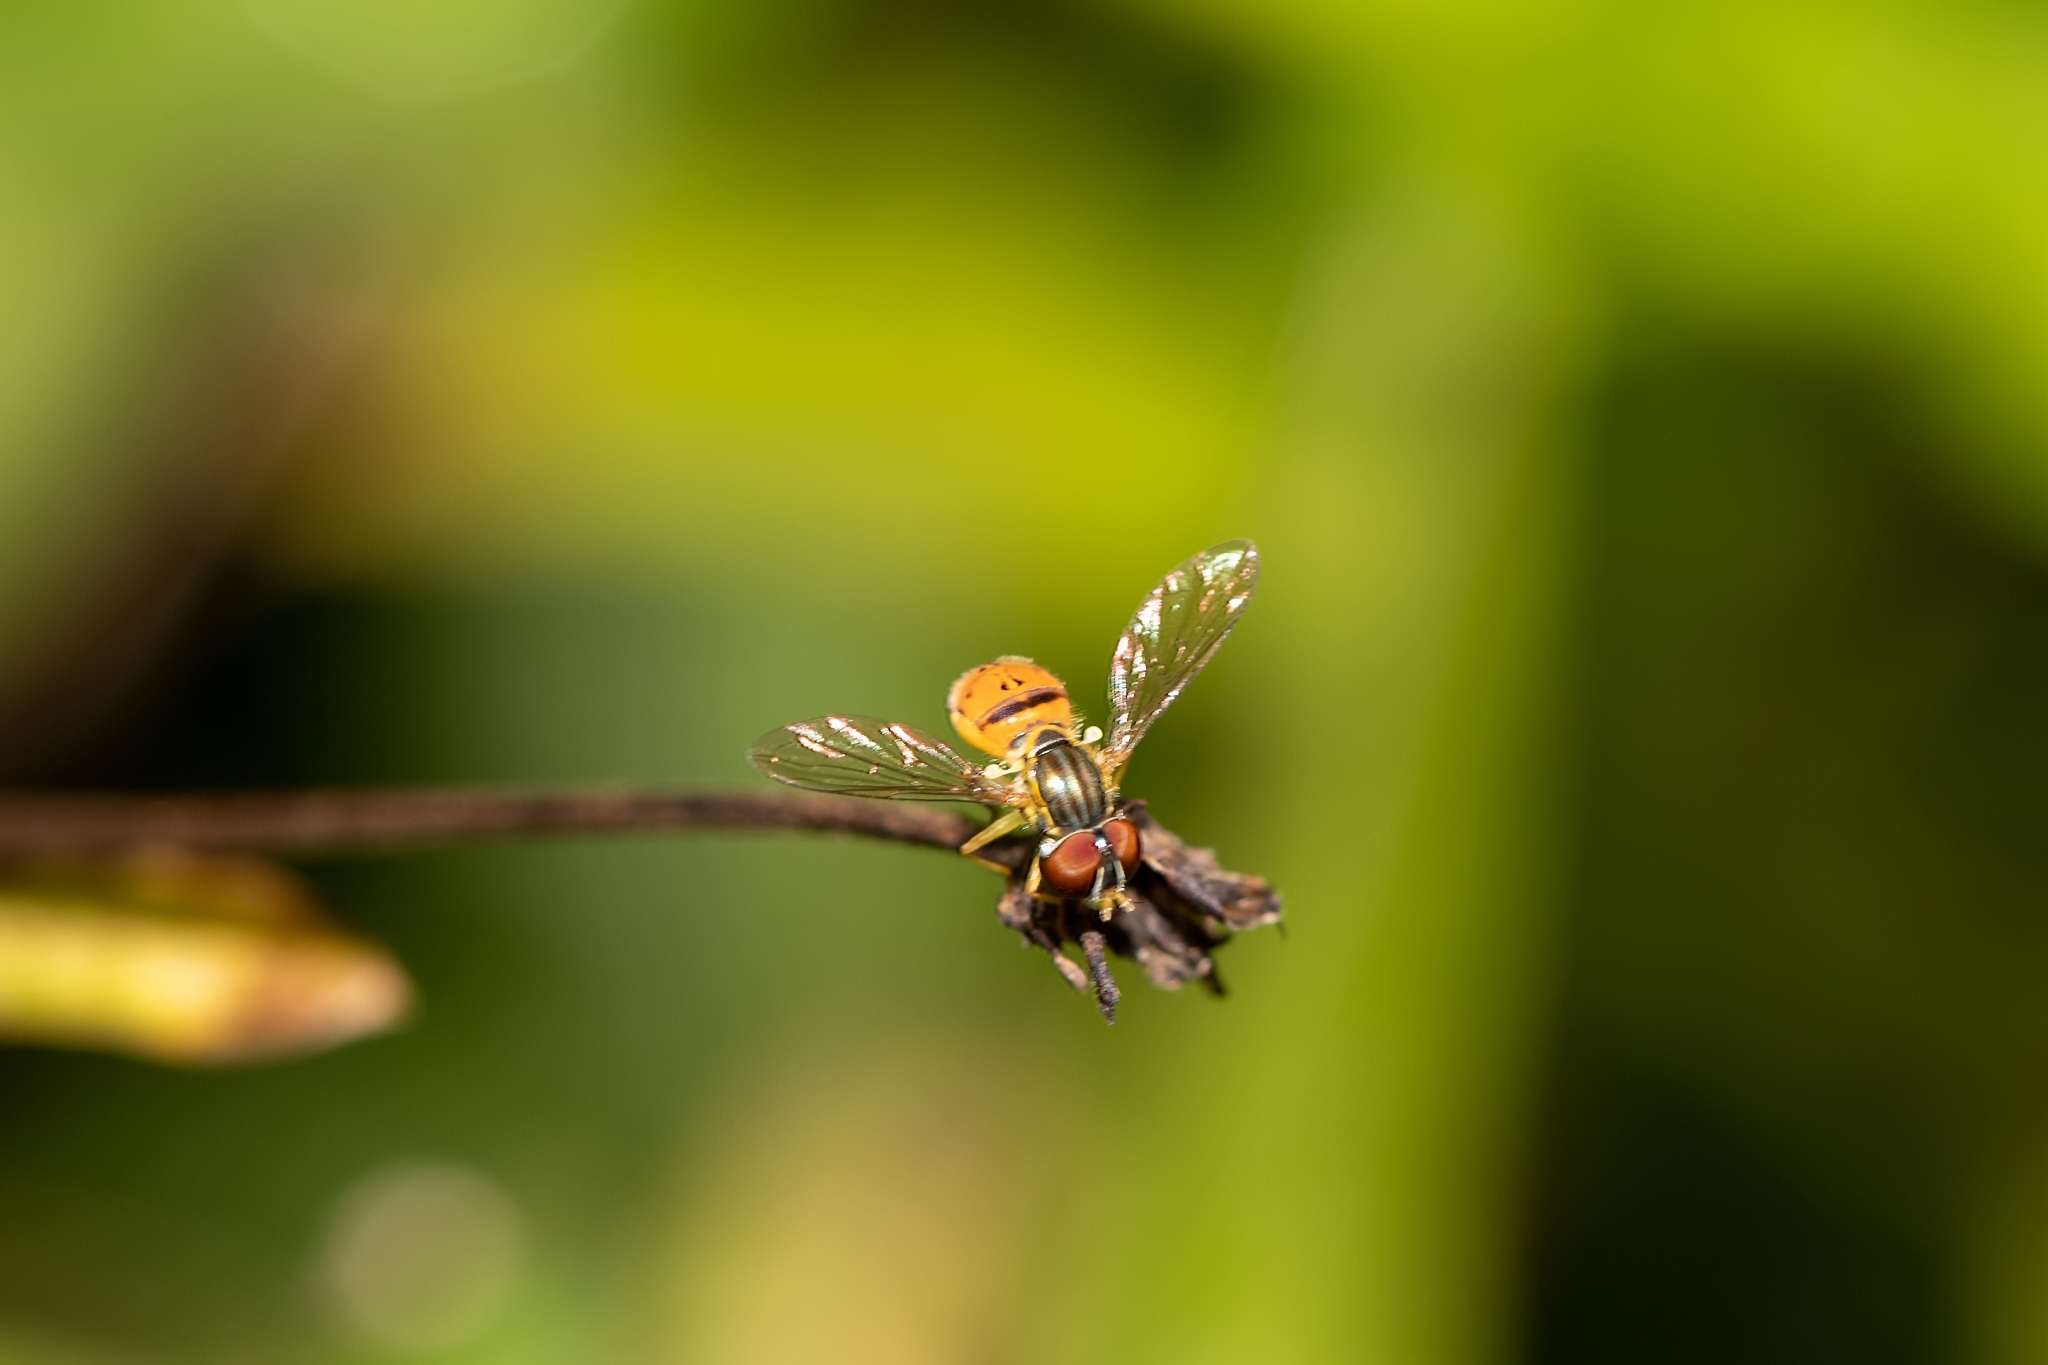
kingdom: Animalia
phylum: Arthropoda
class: Insecta
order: Diptera
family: Syrphidae
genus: Toxomerus
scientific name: Toxomerus boscii
